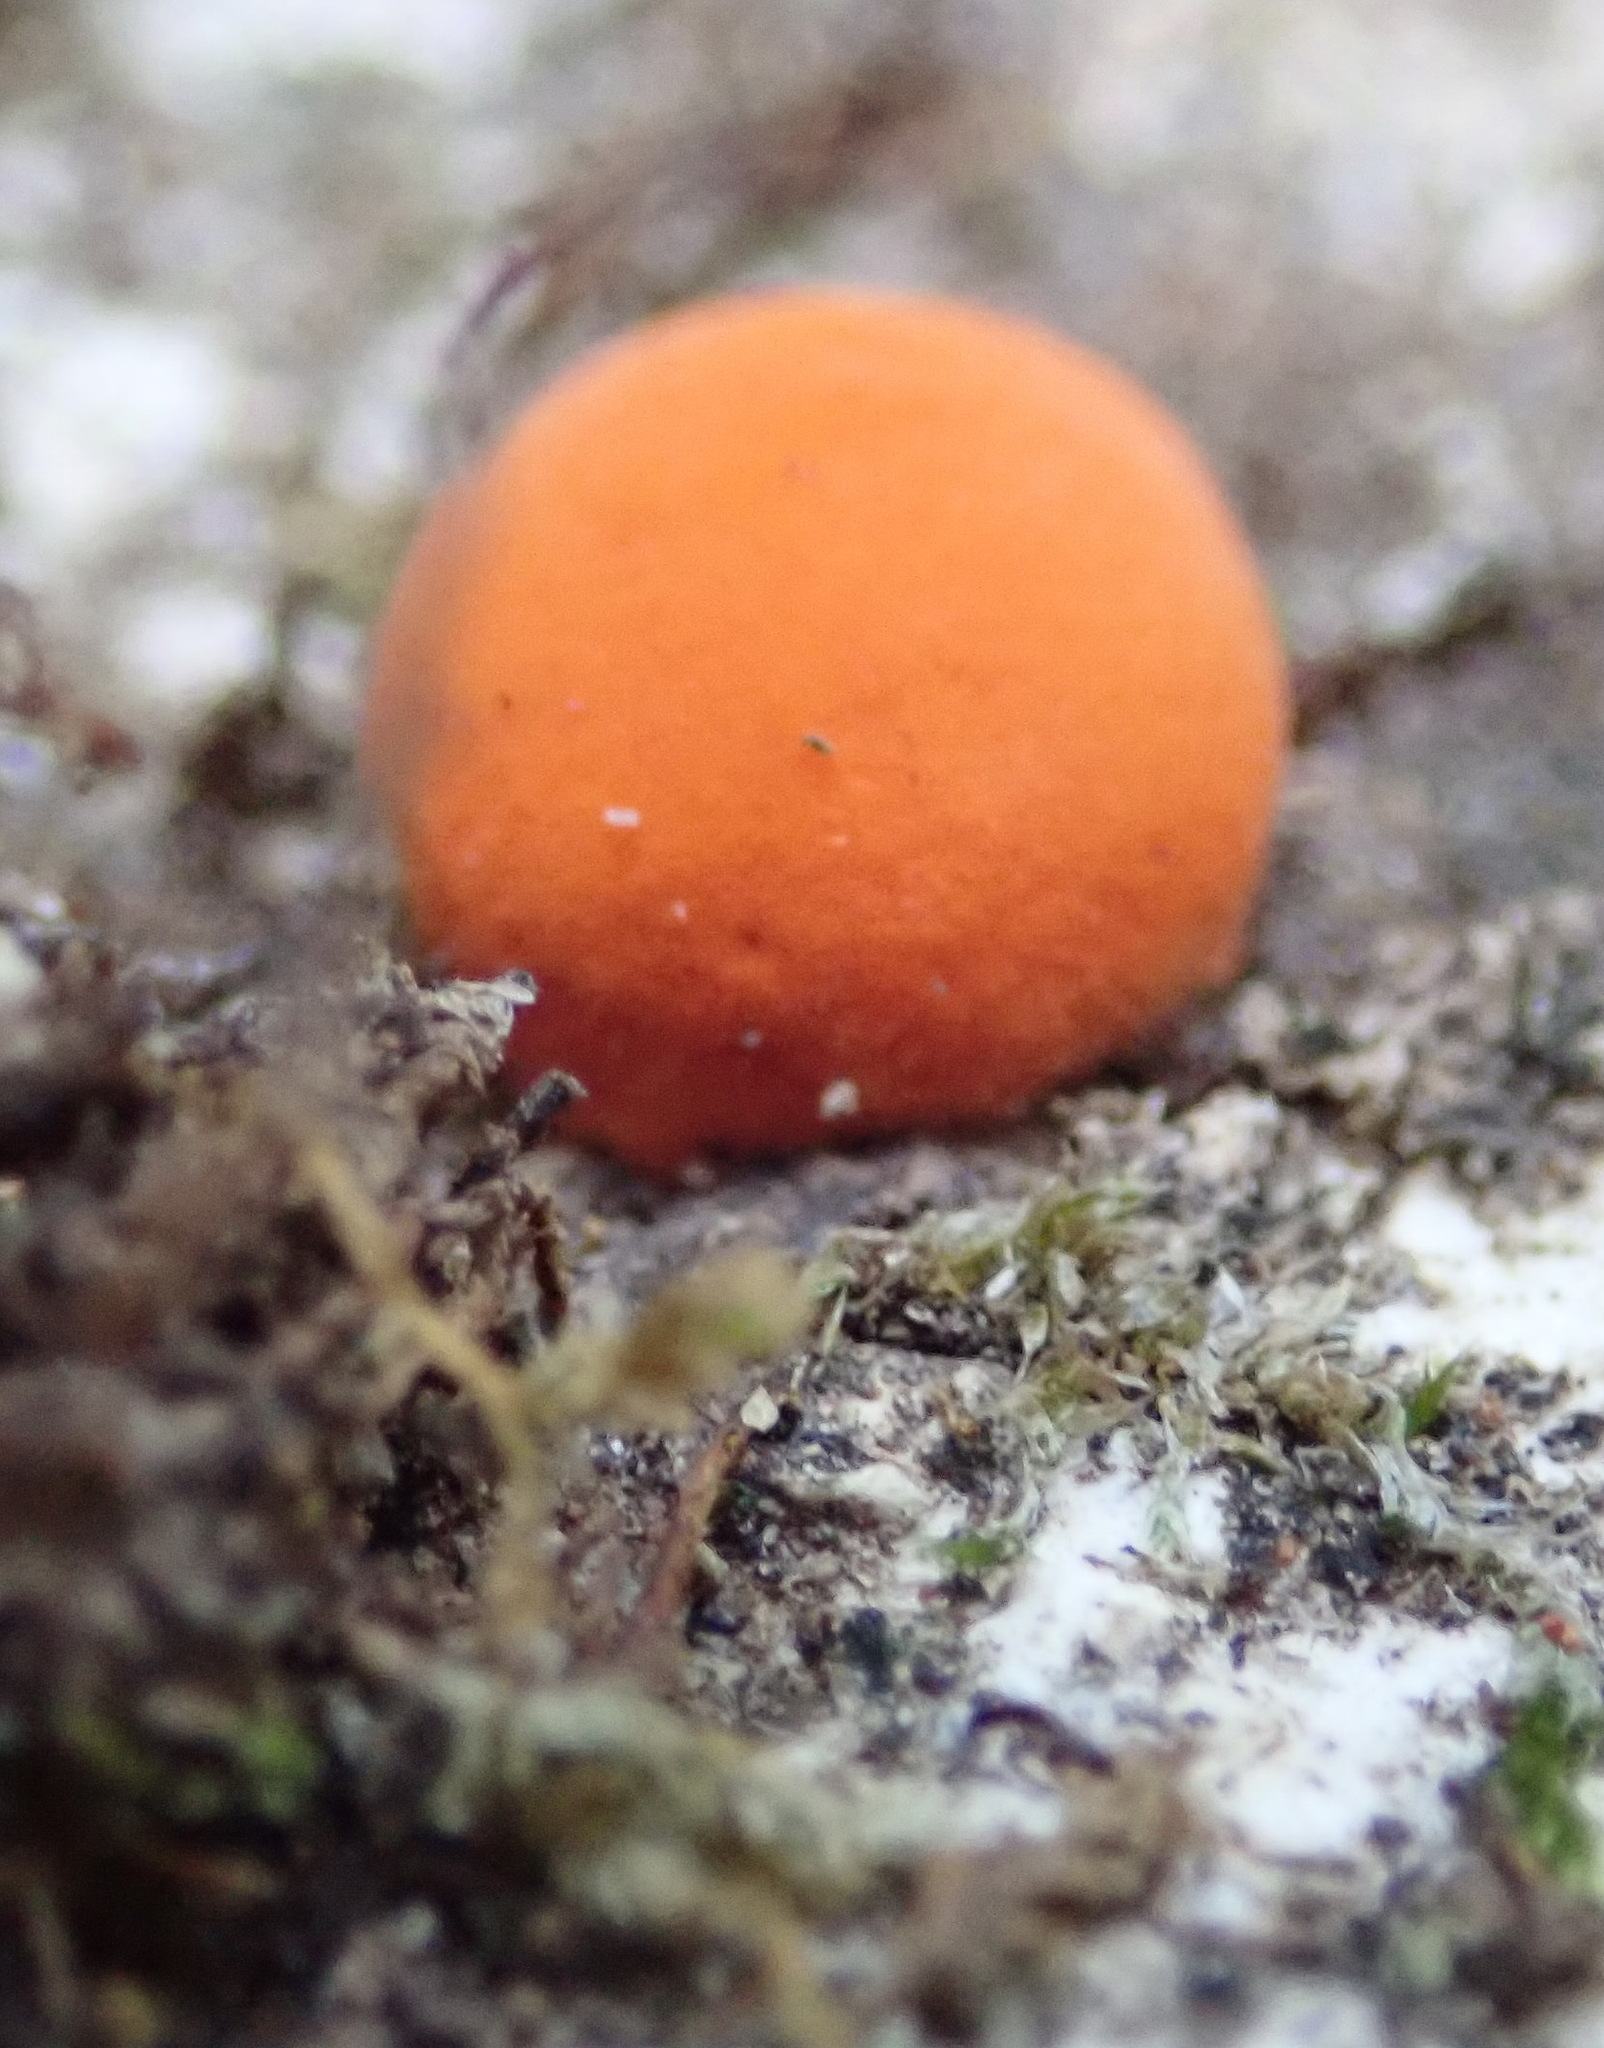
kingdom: Protozoa
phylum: Mycetozoa
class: Myxomycetes
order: Cribrariales
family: Tubiferaceae
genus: Lycogala
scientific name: Lycogala epidendrum
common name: Wolf's milk
